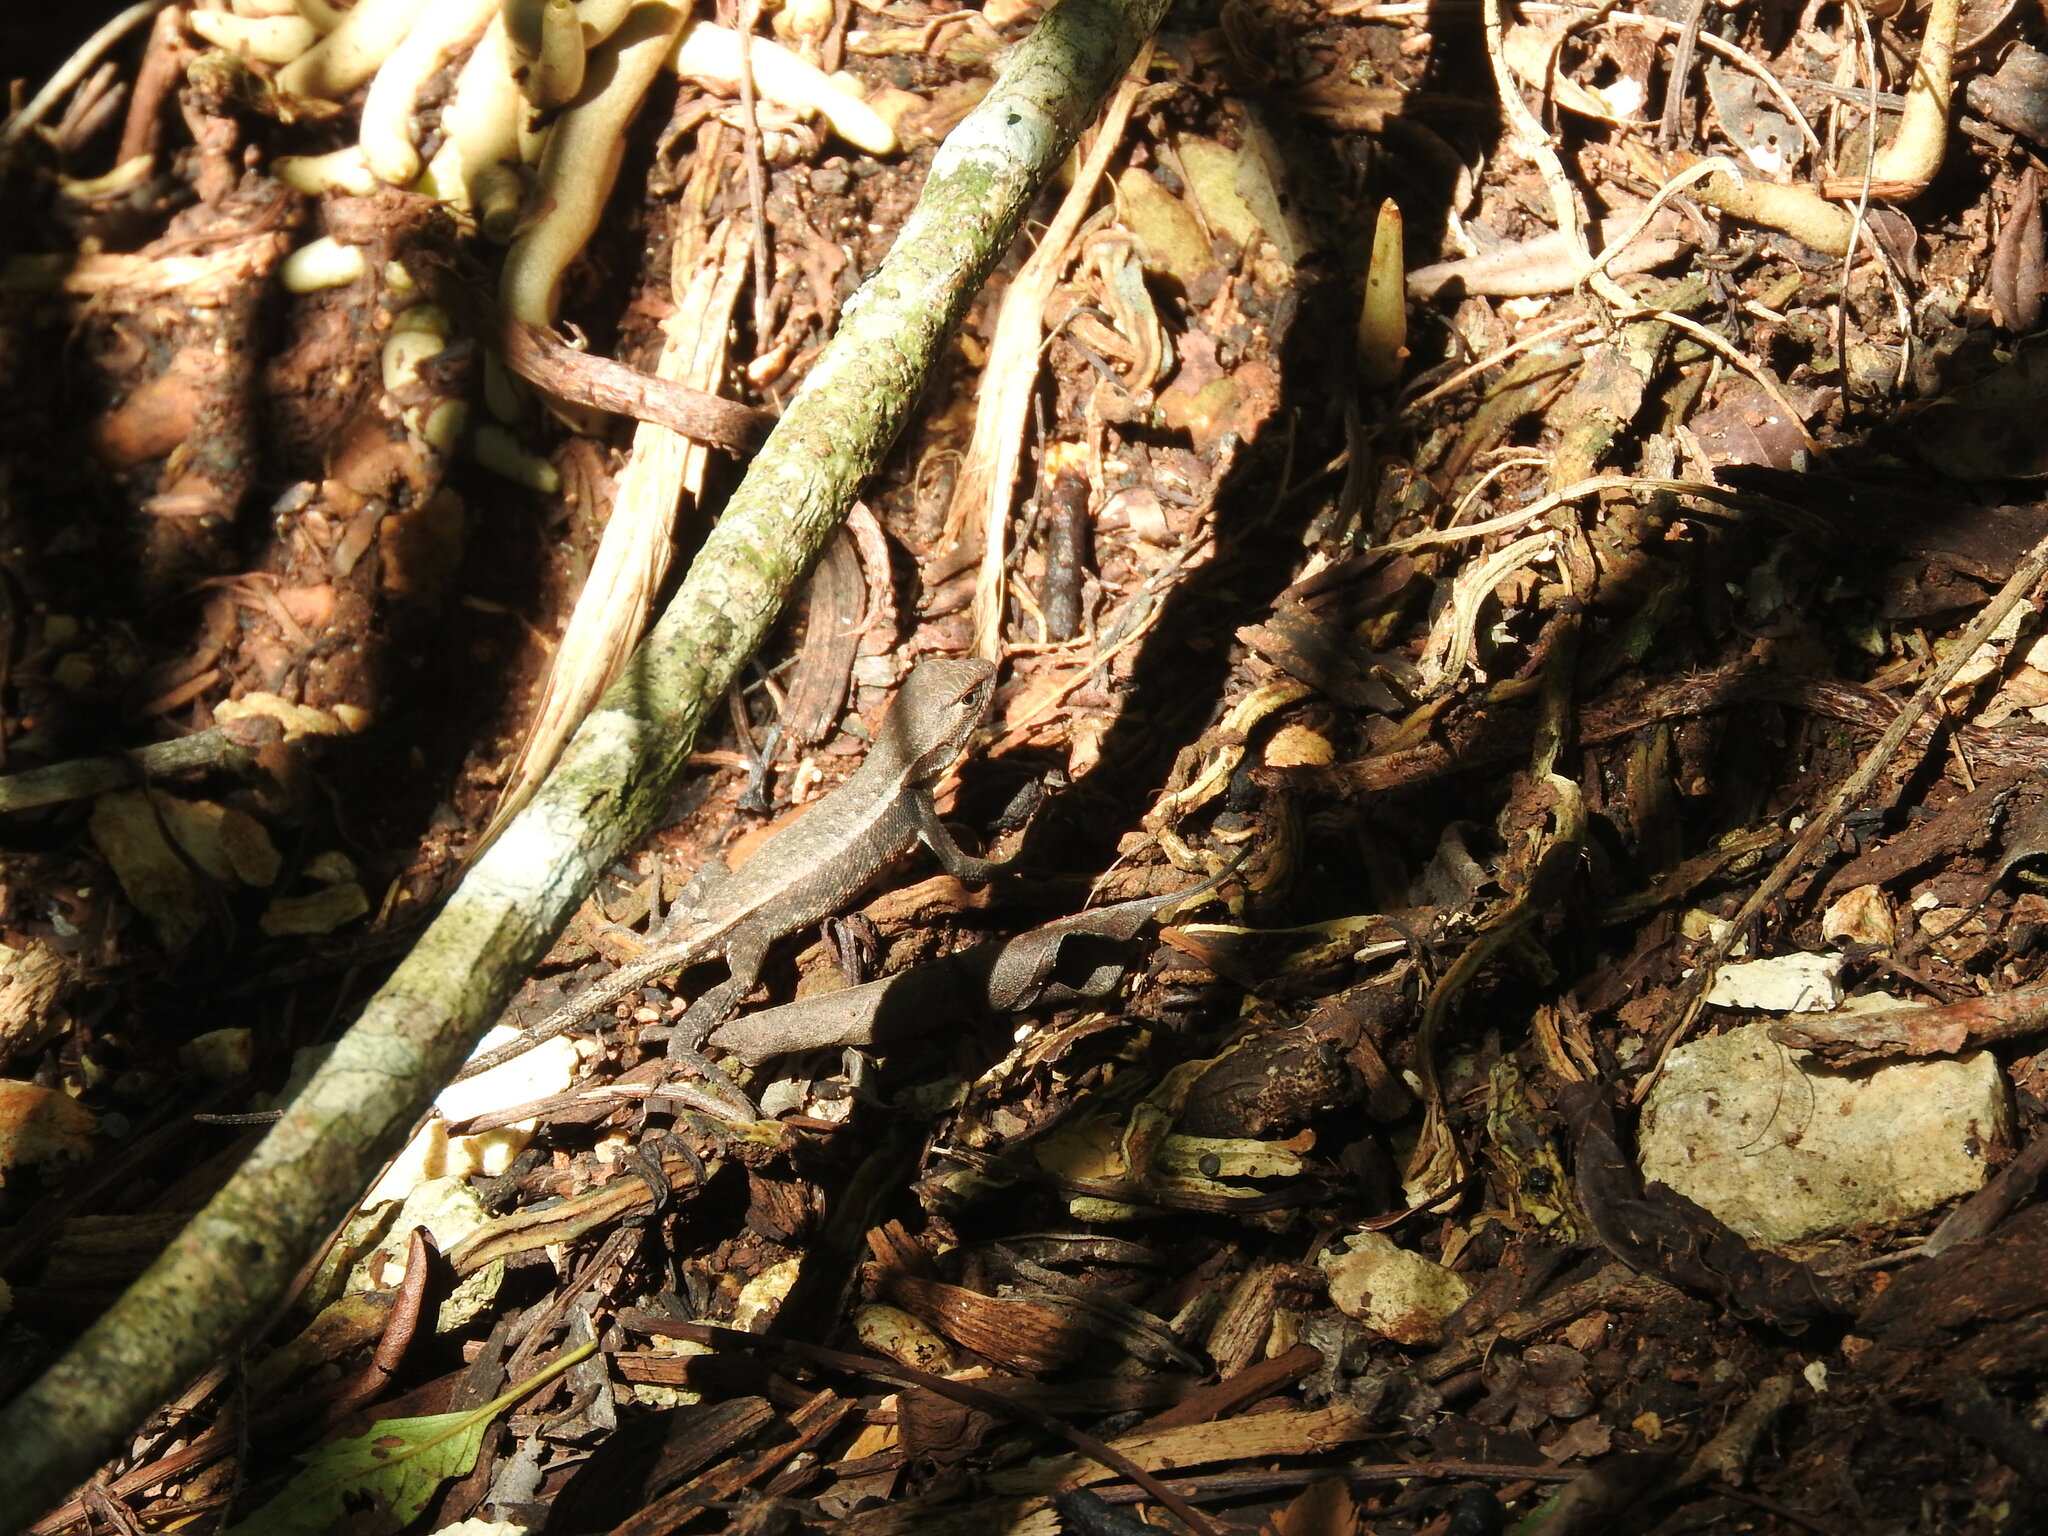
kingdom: Animalia
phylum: Chordata
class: Squamata
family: Phrynosomatidae
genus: Sceloporus
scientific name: Sceloporus chrysostictus
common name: Yellow-spotted spiny lizard
